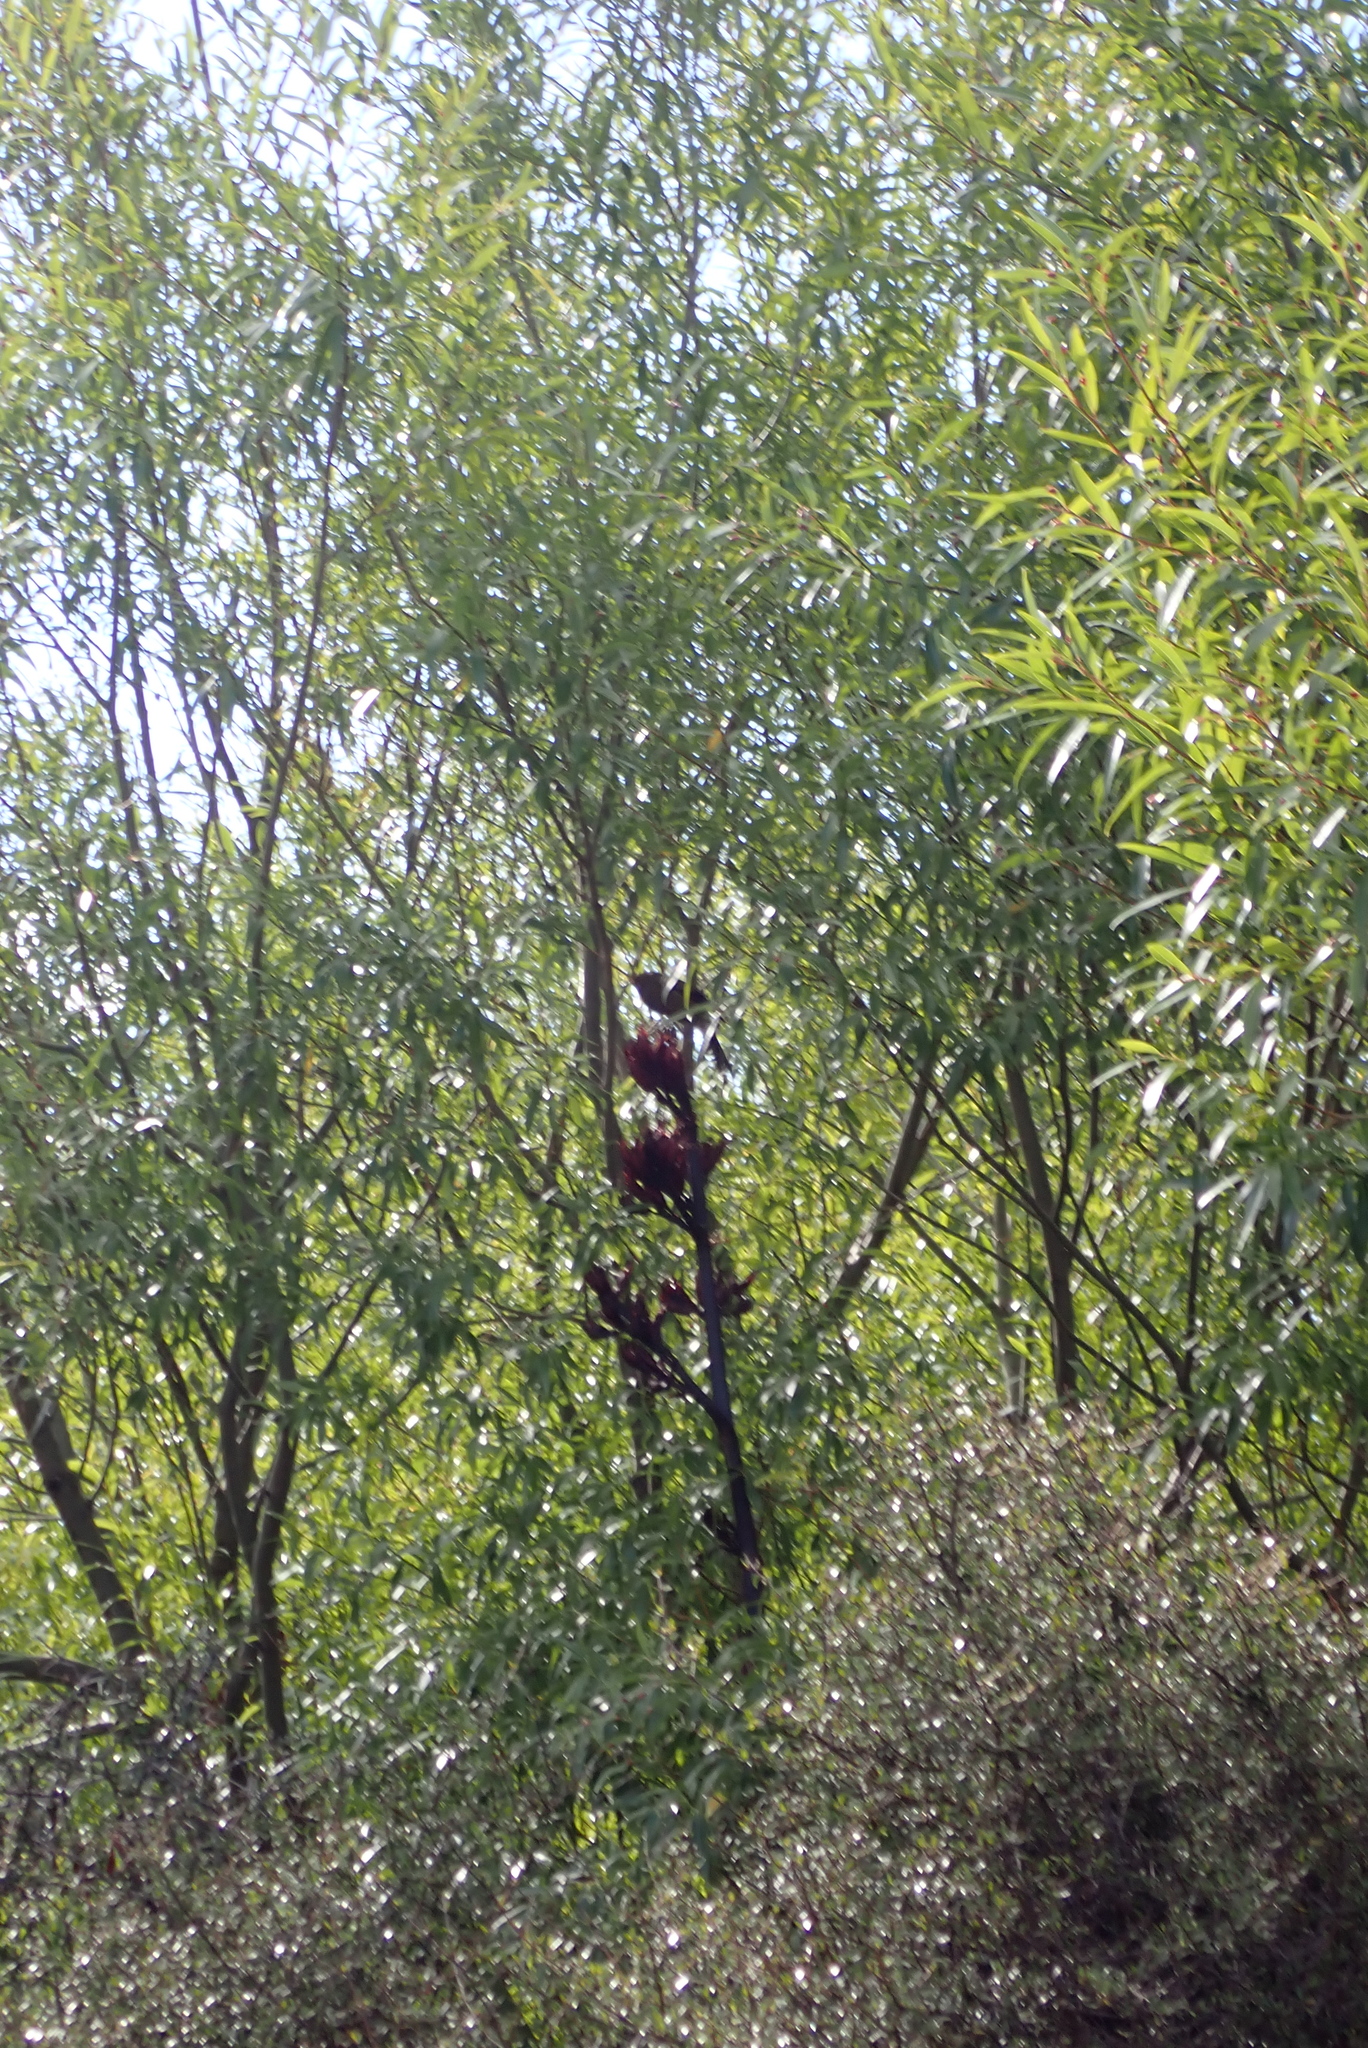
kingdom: Animalia
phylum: Chordata
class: Aves
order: Passeriformes
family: Meliphagidae
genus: Anthornis
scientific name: Anthornis melanura
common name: New zealand bellbird
